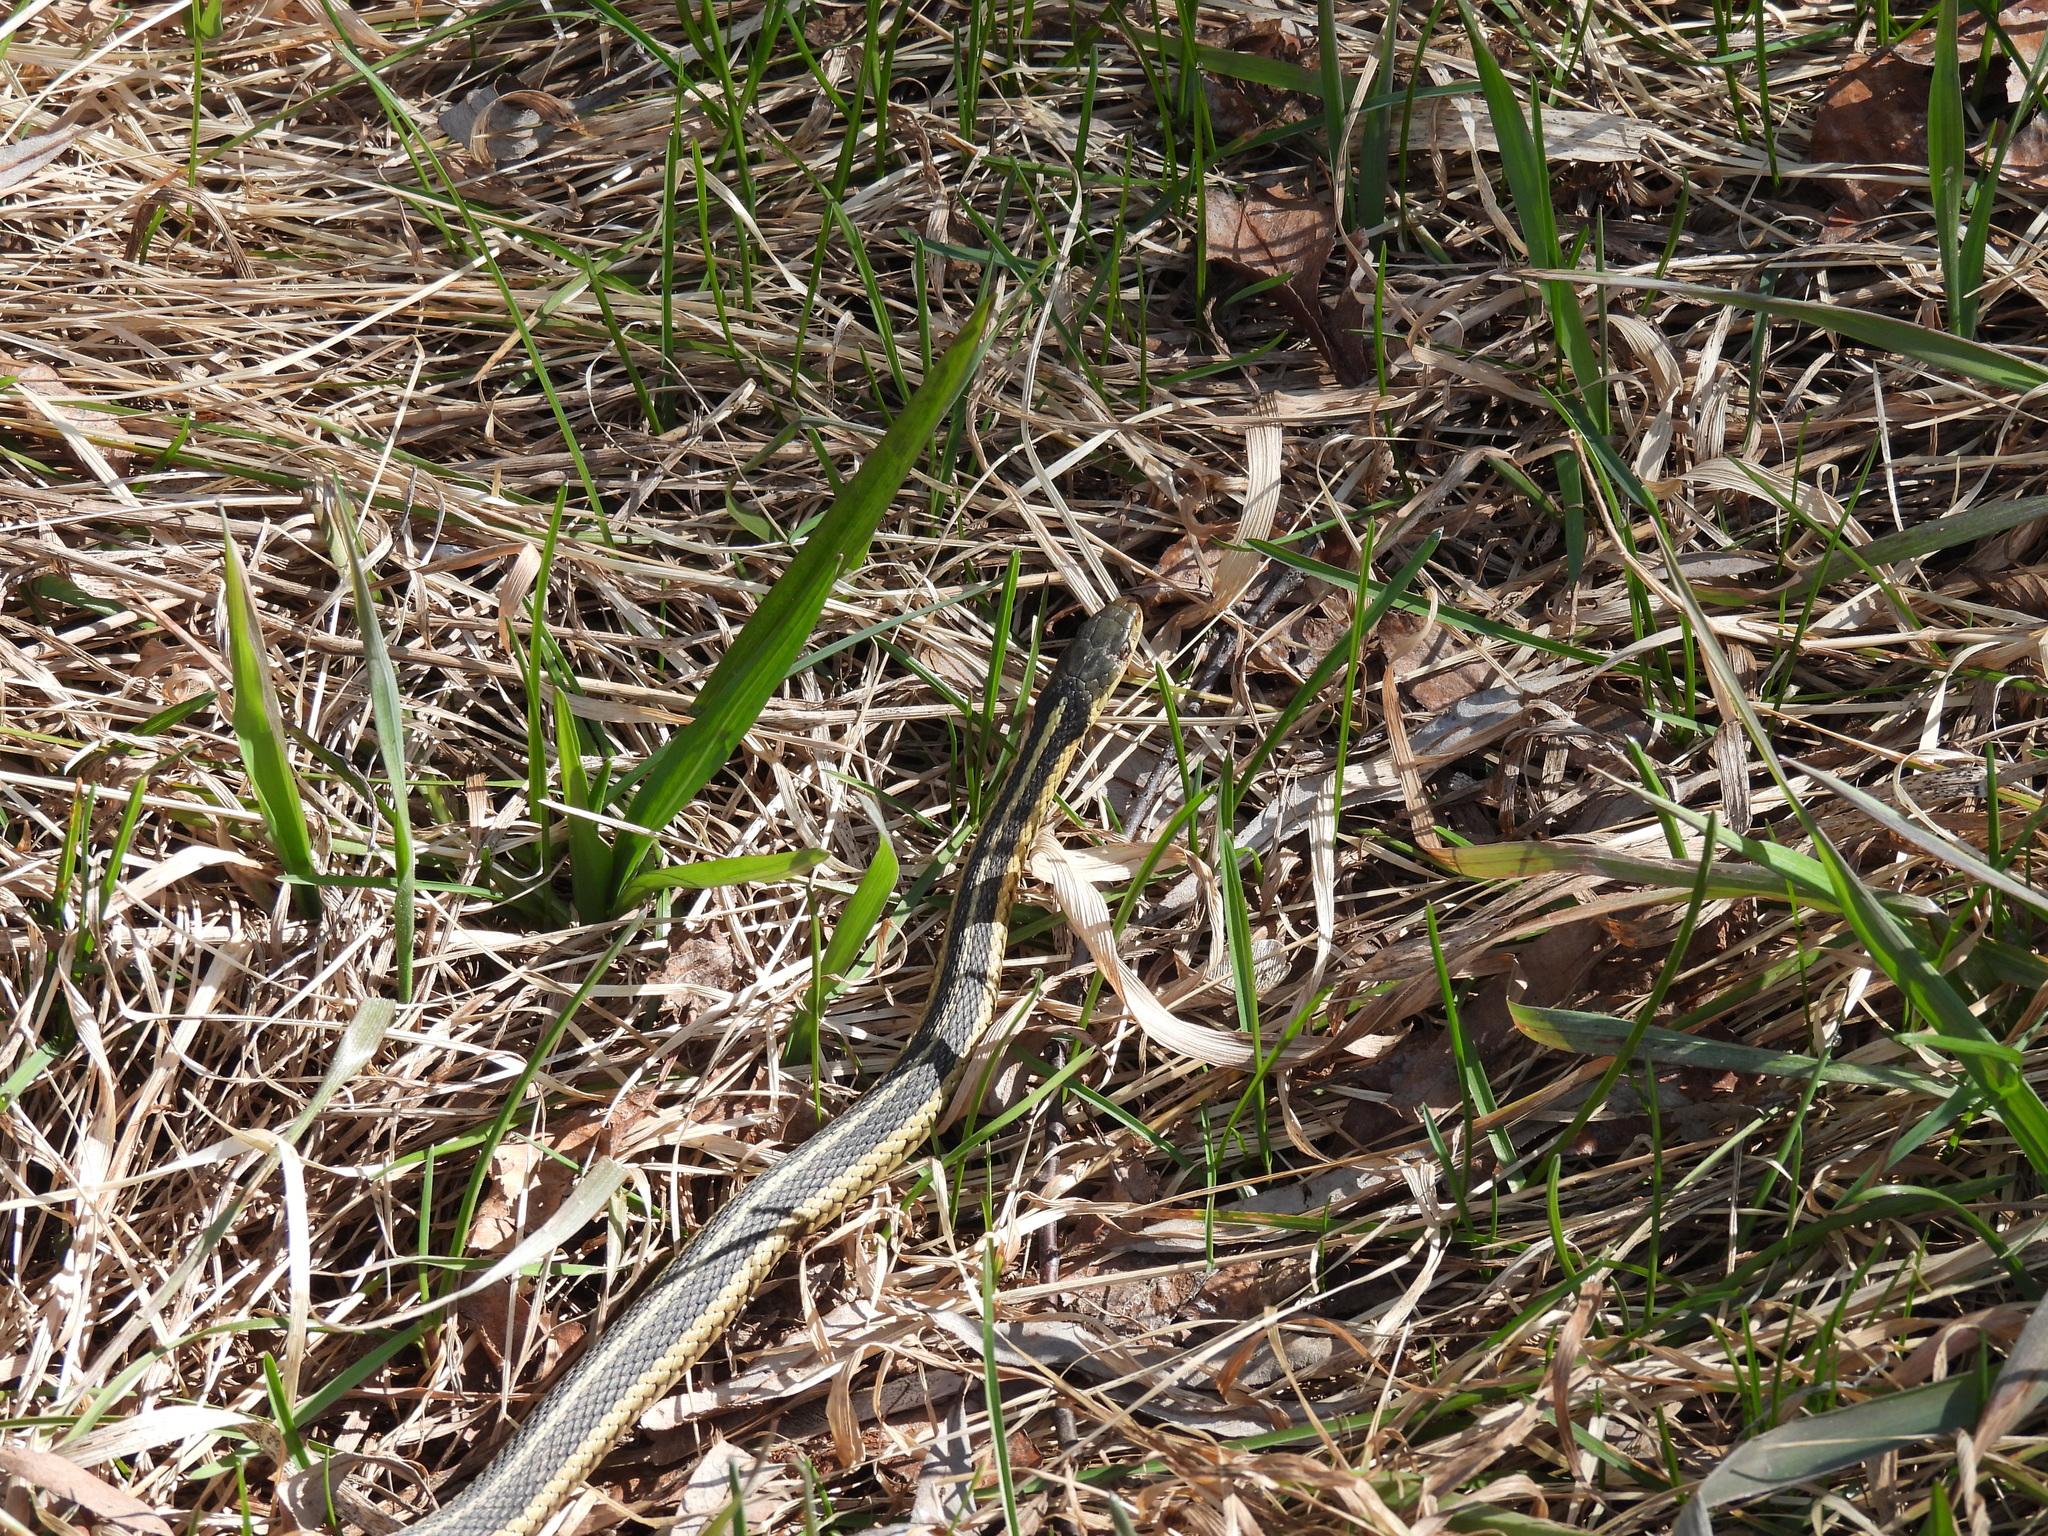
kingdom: Animalia
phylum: Chordata
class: Squamata
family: Colubridae
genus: Thamnophis
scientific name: Thamnophis sirtalis
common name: Common garter snake
